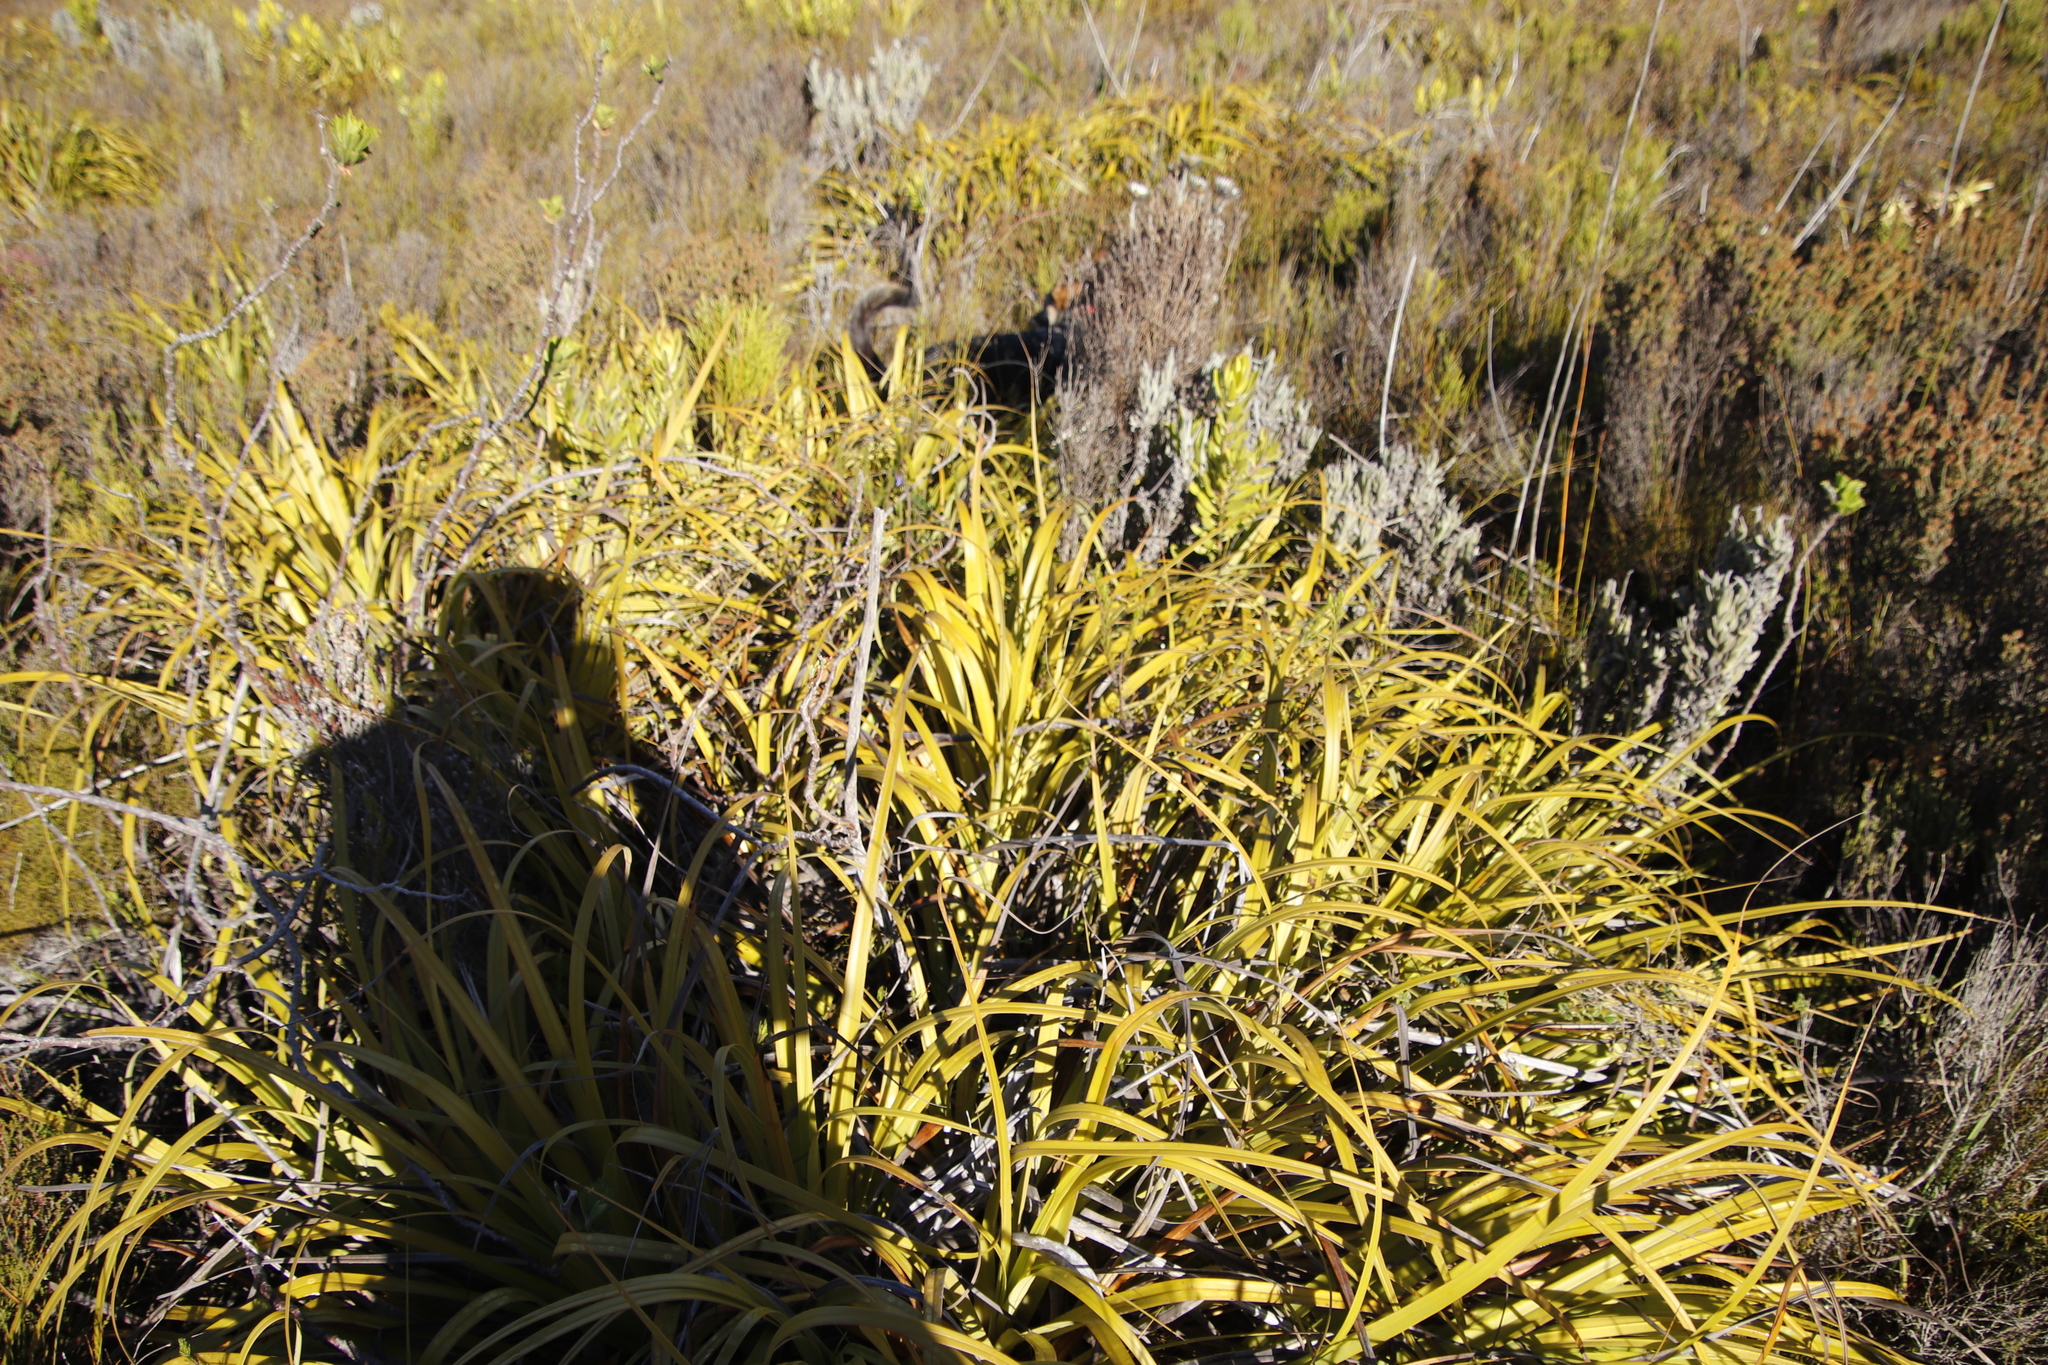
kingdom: Plantae
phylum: Tracheophyta
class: Liliopsida
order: Poales
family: Cyperaceae
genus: Tetraria
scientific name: Tetraria thermalis
